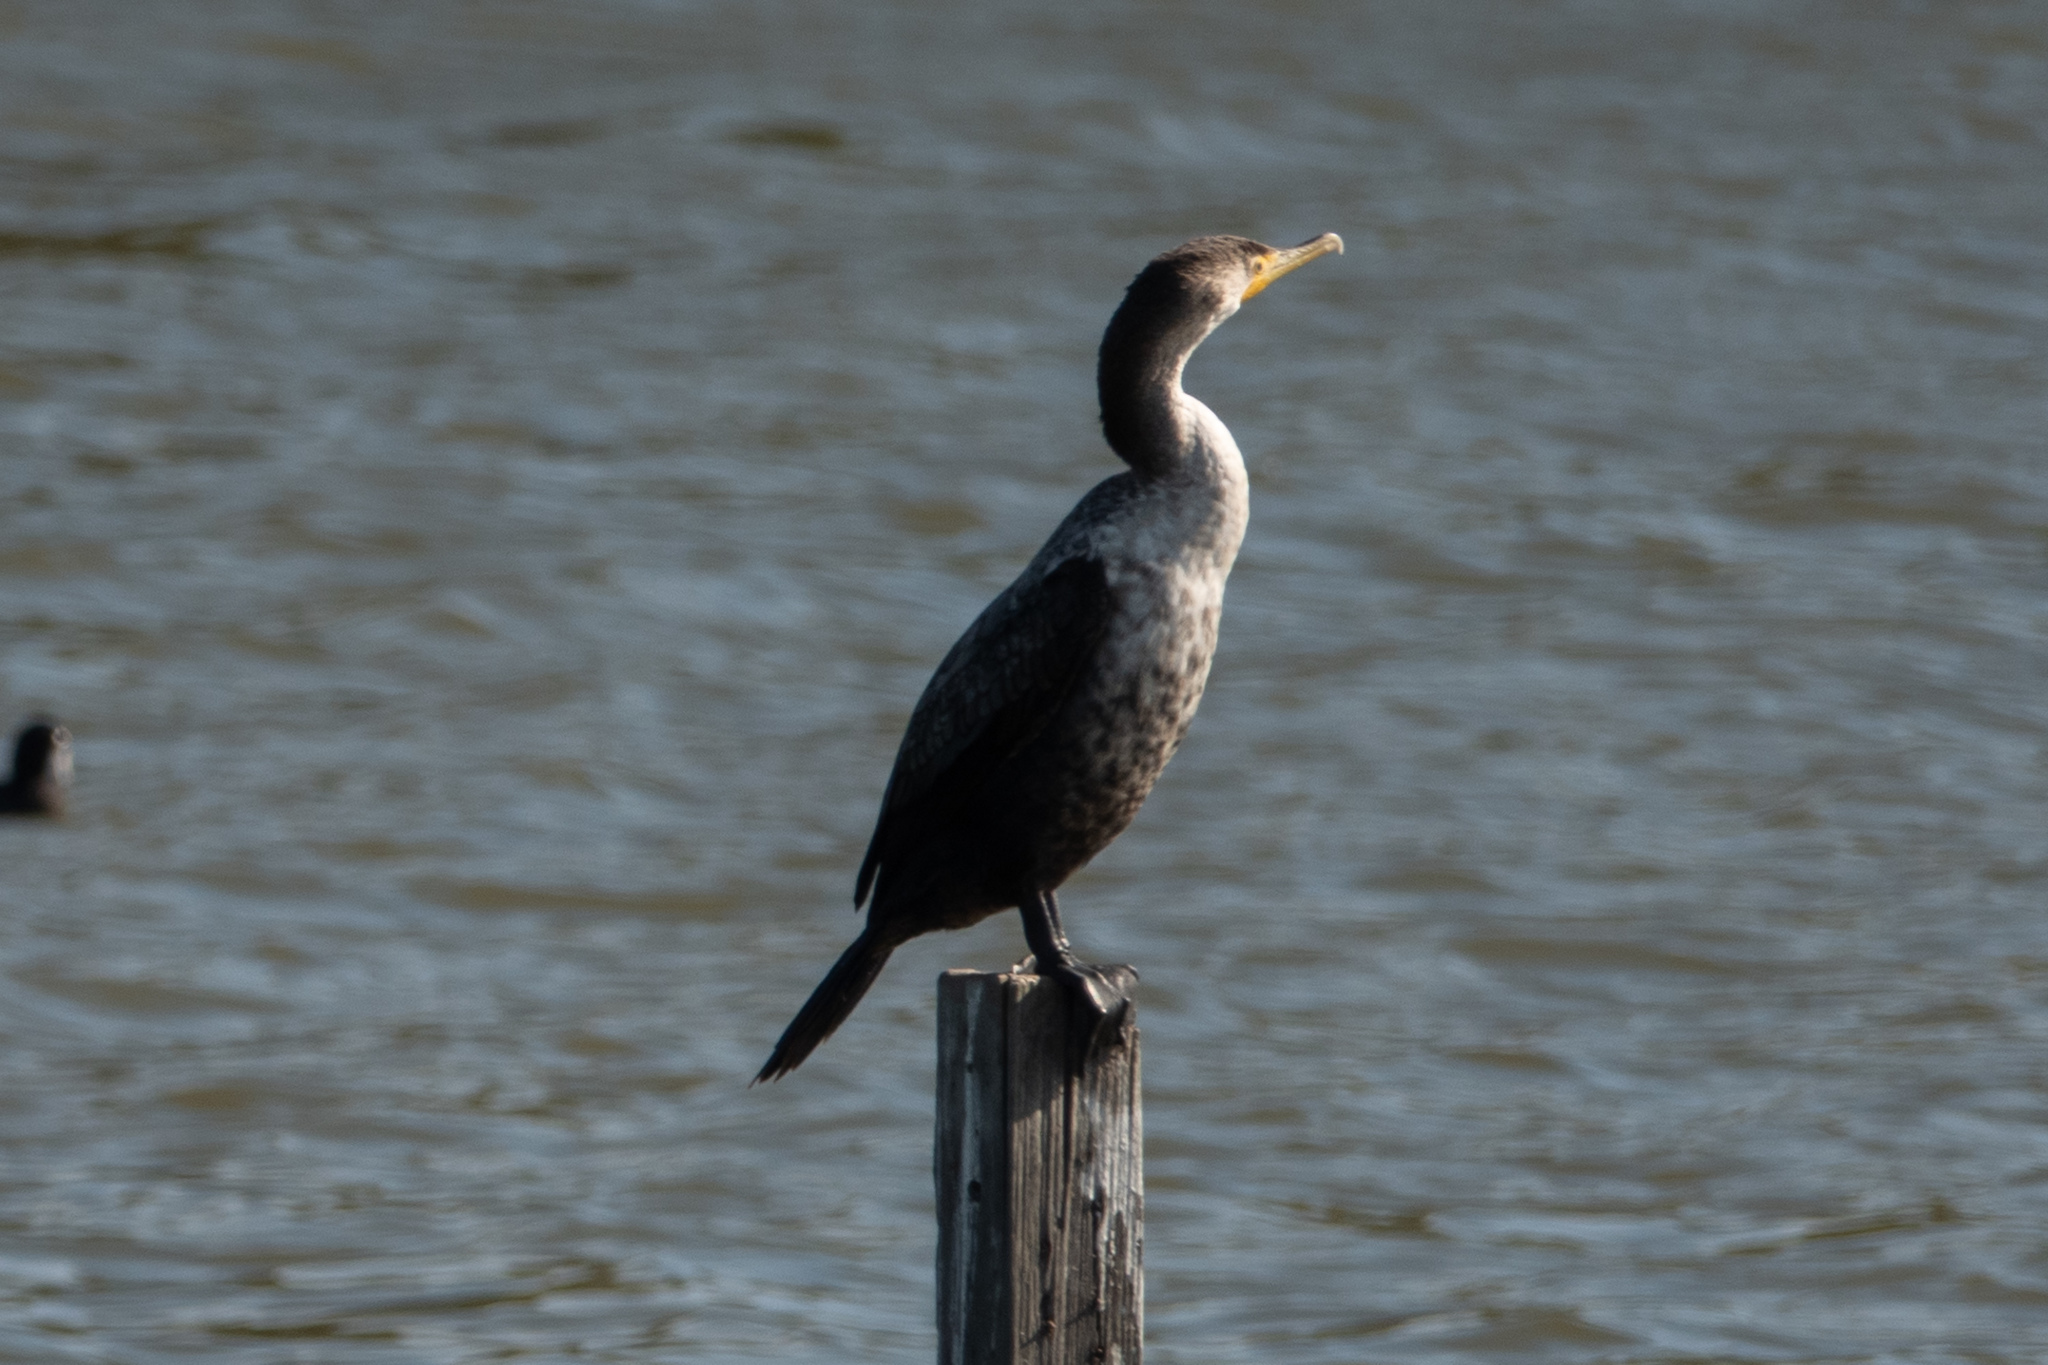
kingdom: Animalia
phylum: Chordata
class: Aves
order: Suliformes
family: Phalacrocoracidae
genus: Phalacrocorax
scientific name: Phalacrocorax auritus
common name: Double-crested cormorant
